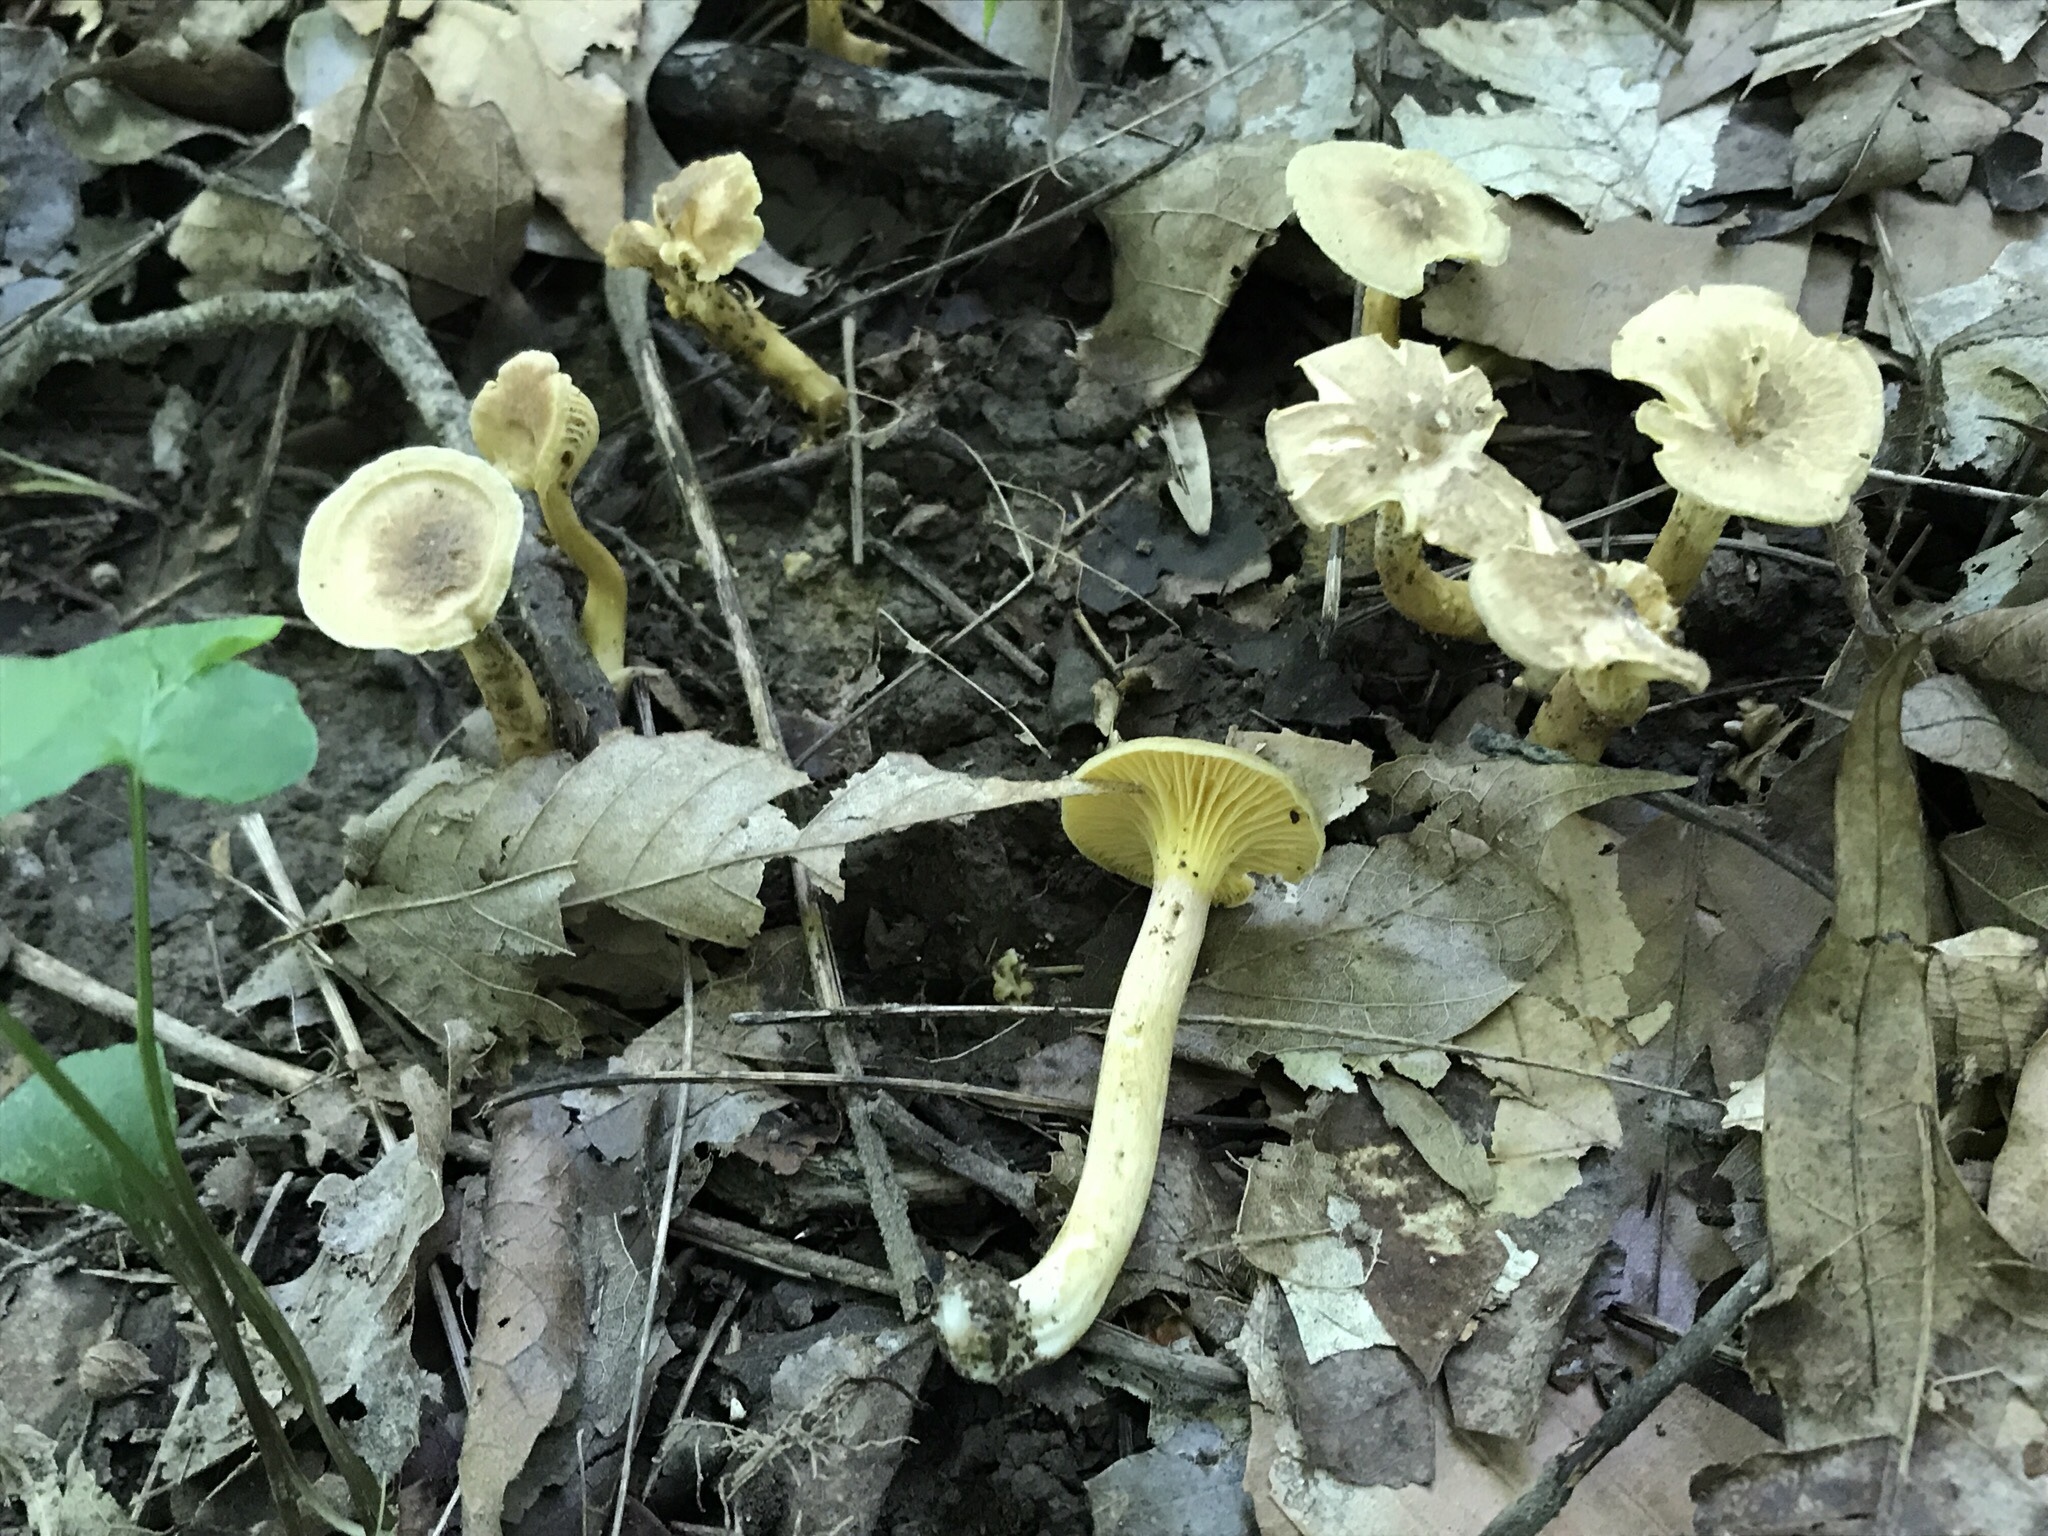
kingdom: Fungi
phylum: Basidiomycota
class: Agaricomycetes
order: Cantharellales
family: Hydnaceae
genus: Cantharellus
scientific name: Cantharellus appalachiensis
